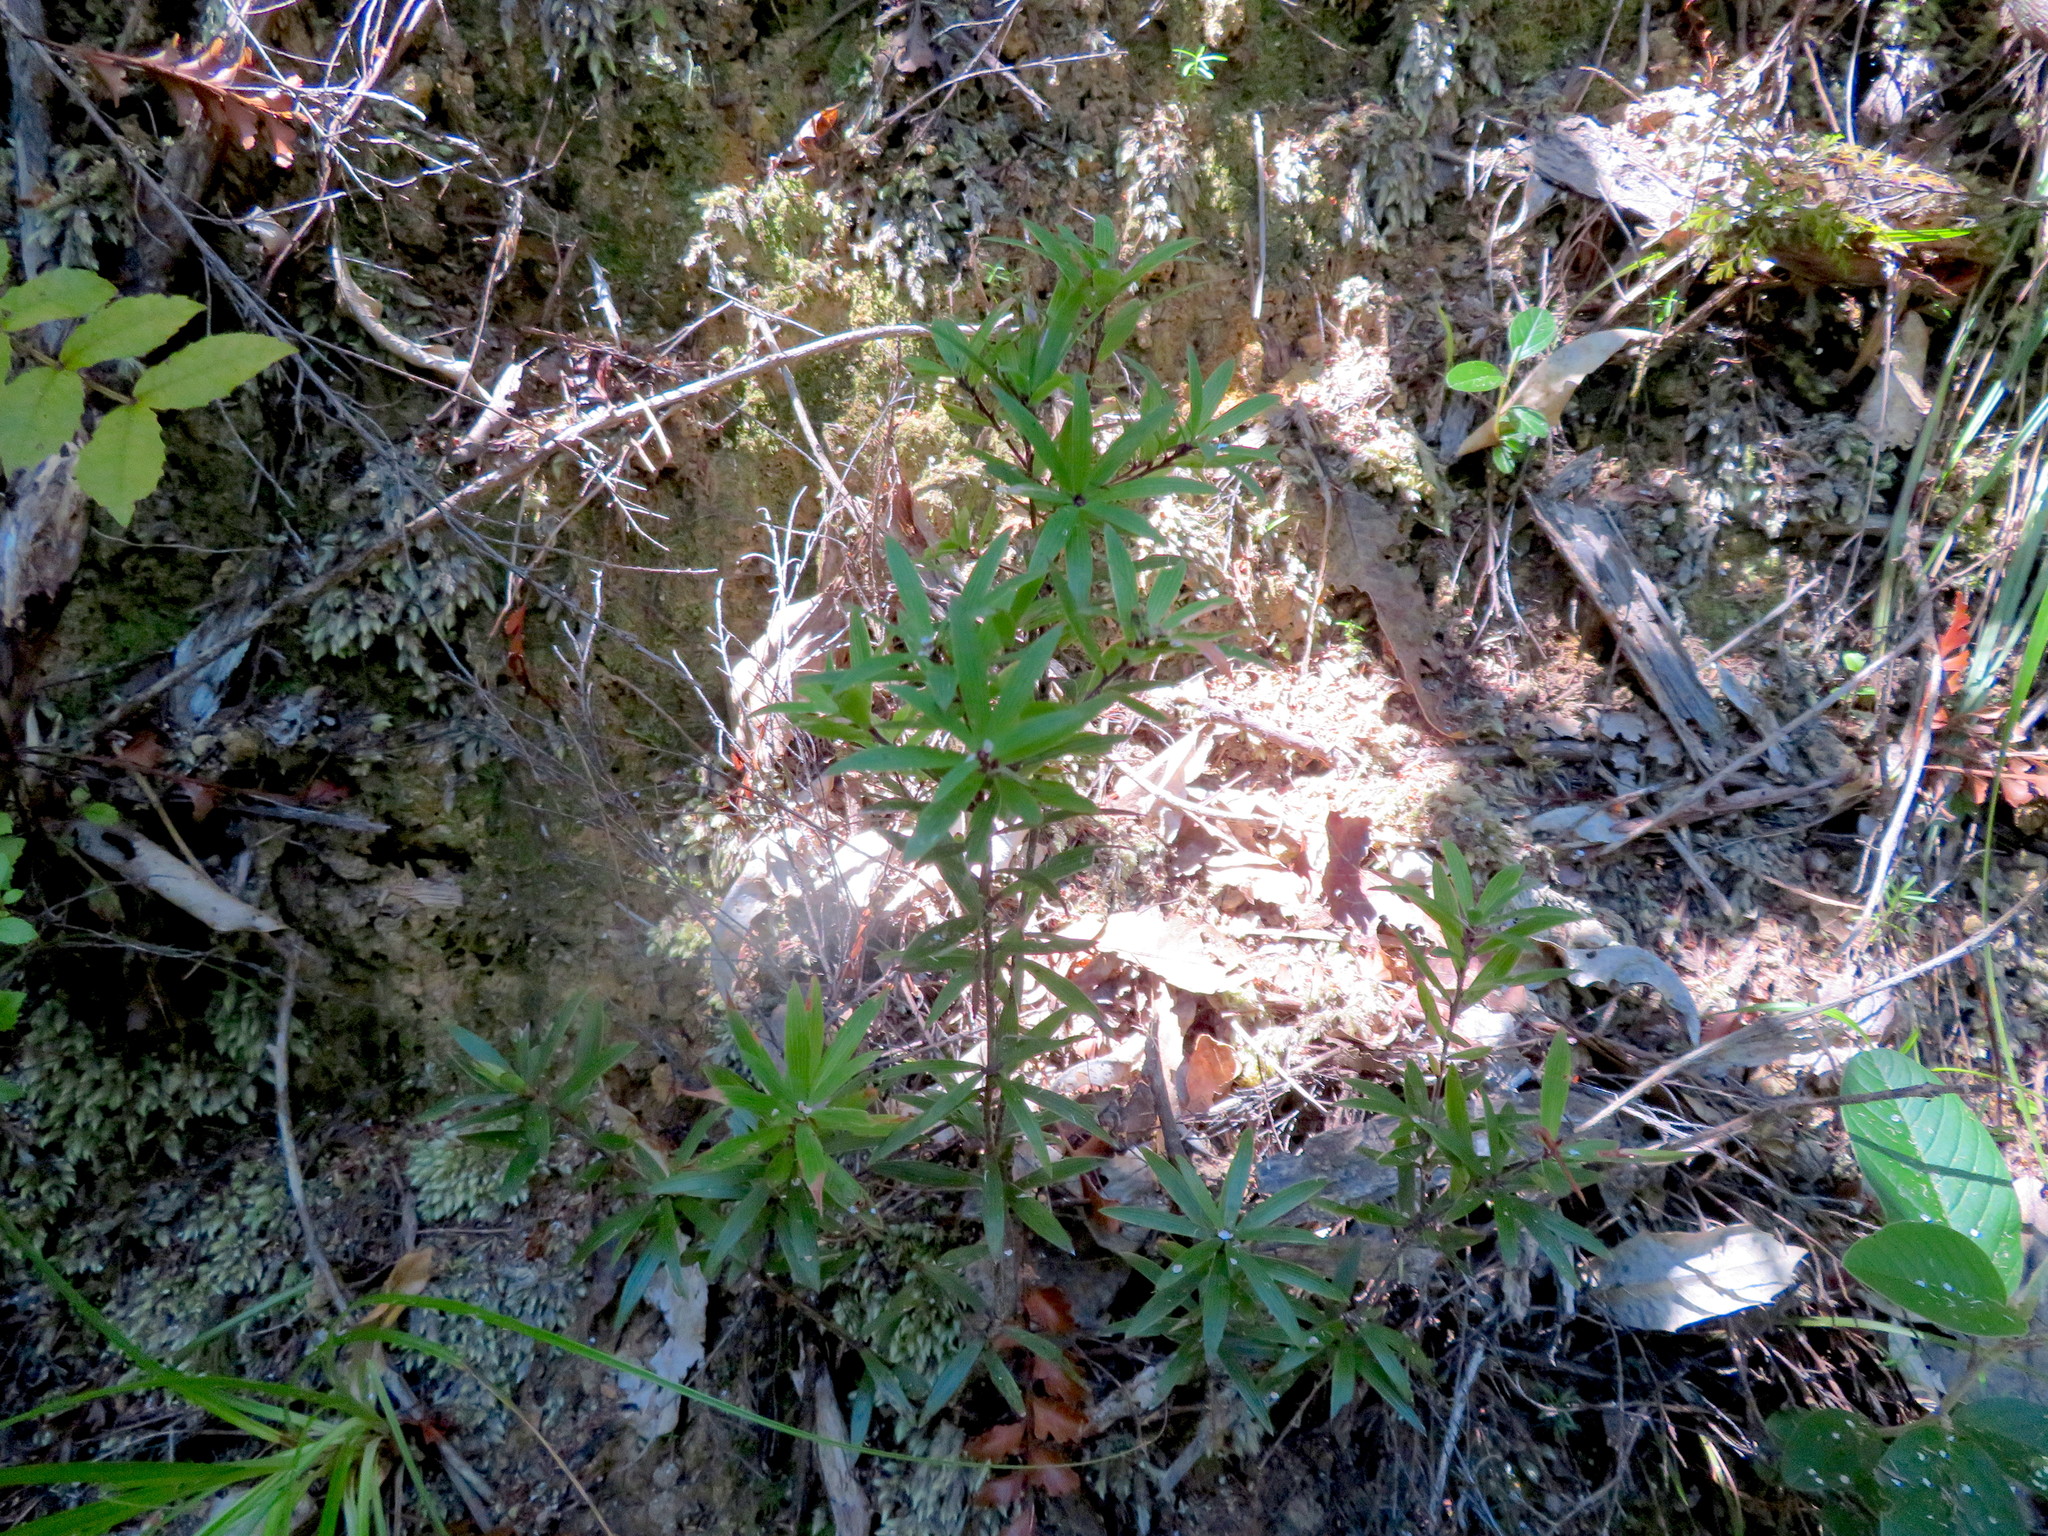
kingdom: Plantae
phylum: Tracheophyta
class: Magnoliopsida
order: Ericales
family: Ericaceae
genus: Leucopogon
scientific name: Leucopogon fasciculatus
